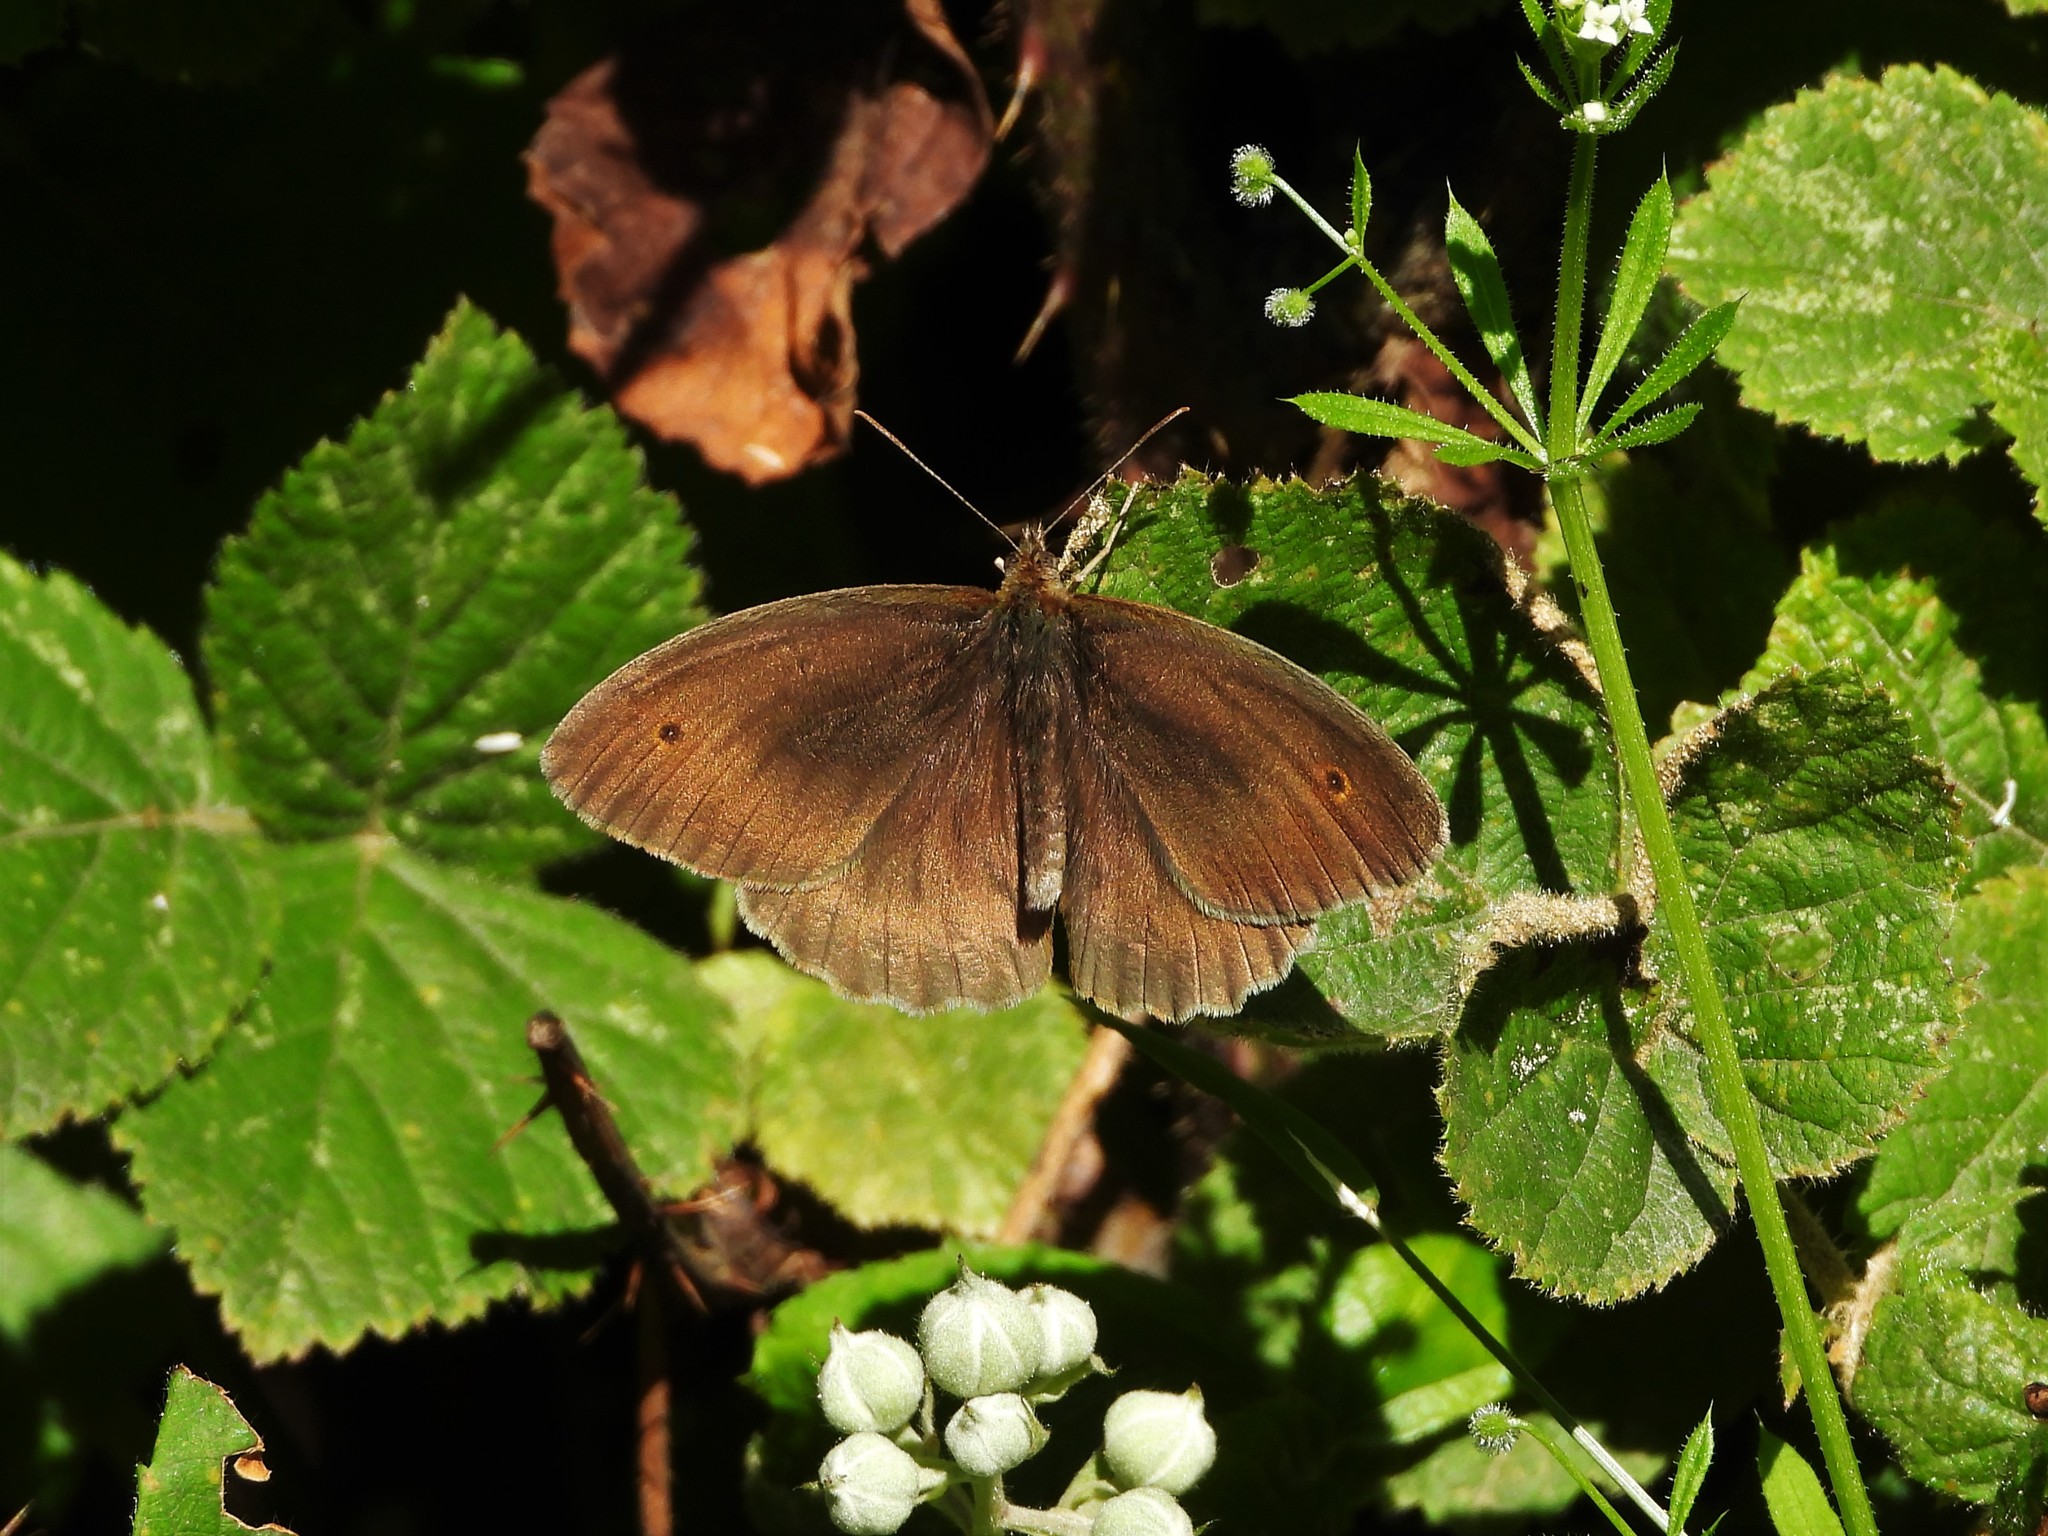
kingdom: Animalia
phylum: Arthropoda
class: Insecta
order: Lepidoptera
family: Nymphalidae
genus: Maniola
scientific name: Maniola jurtina
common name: Meadow brown
